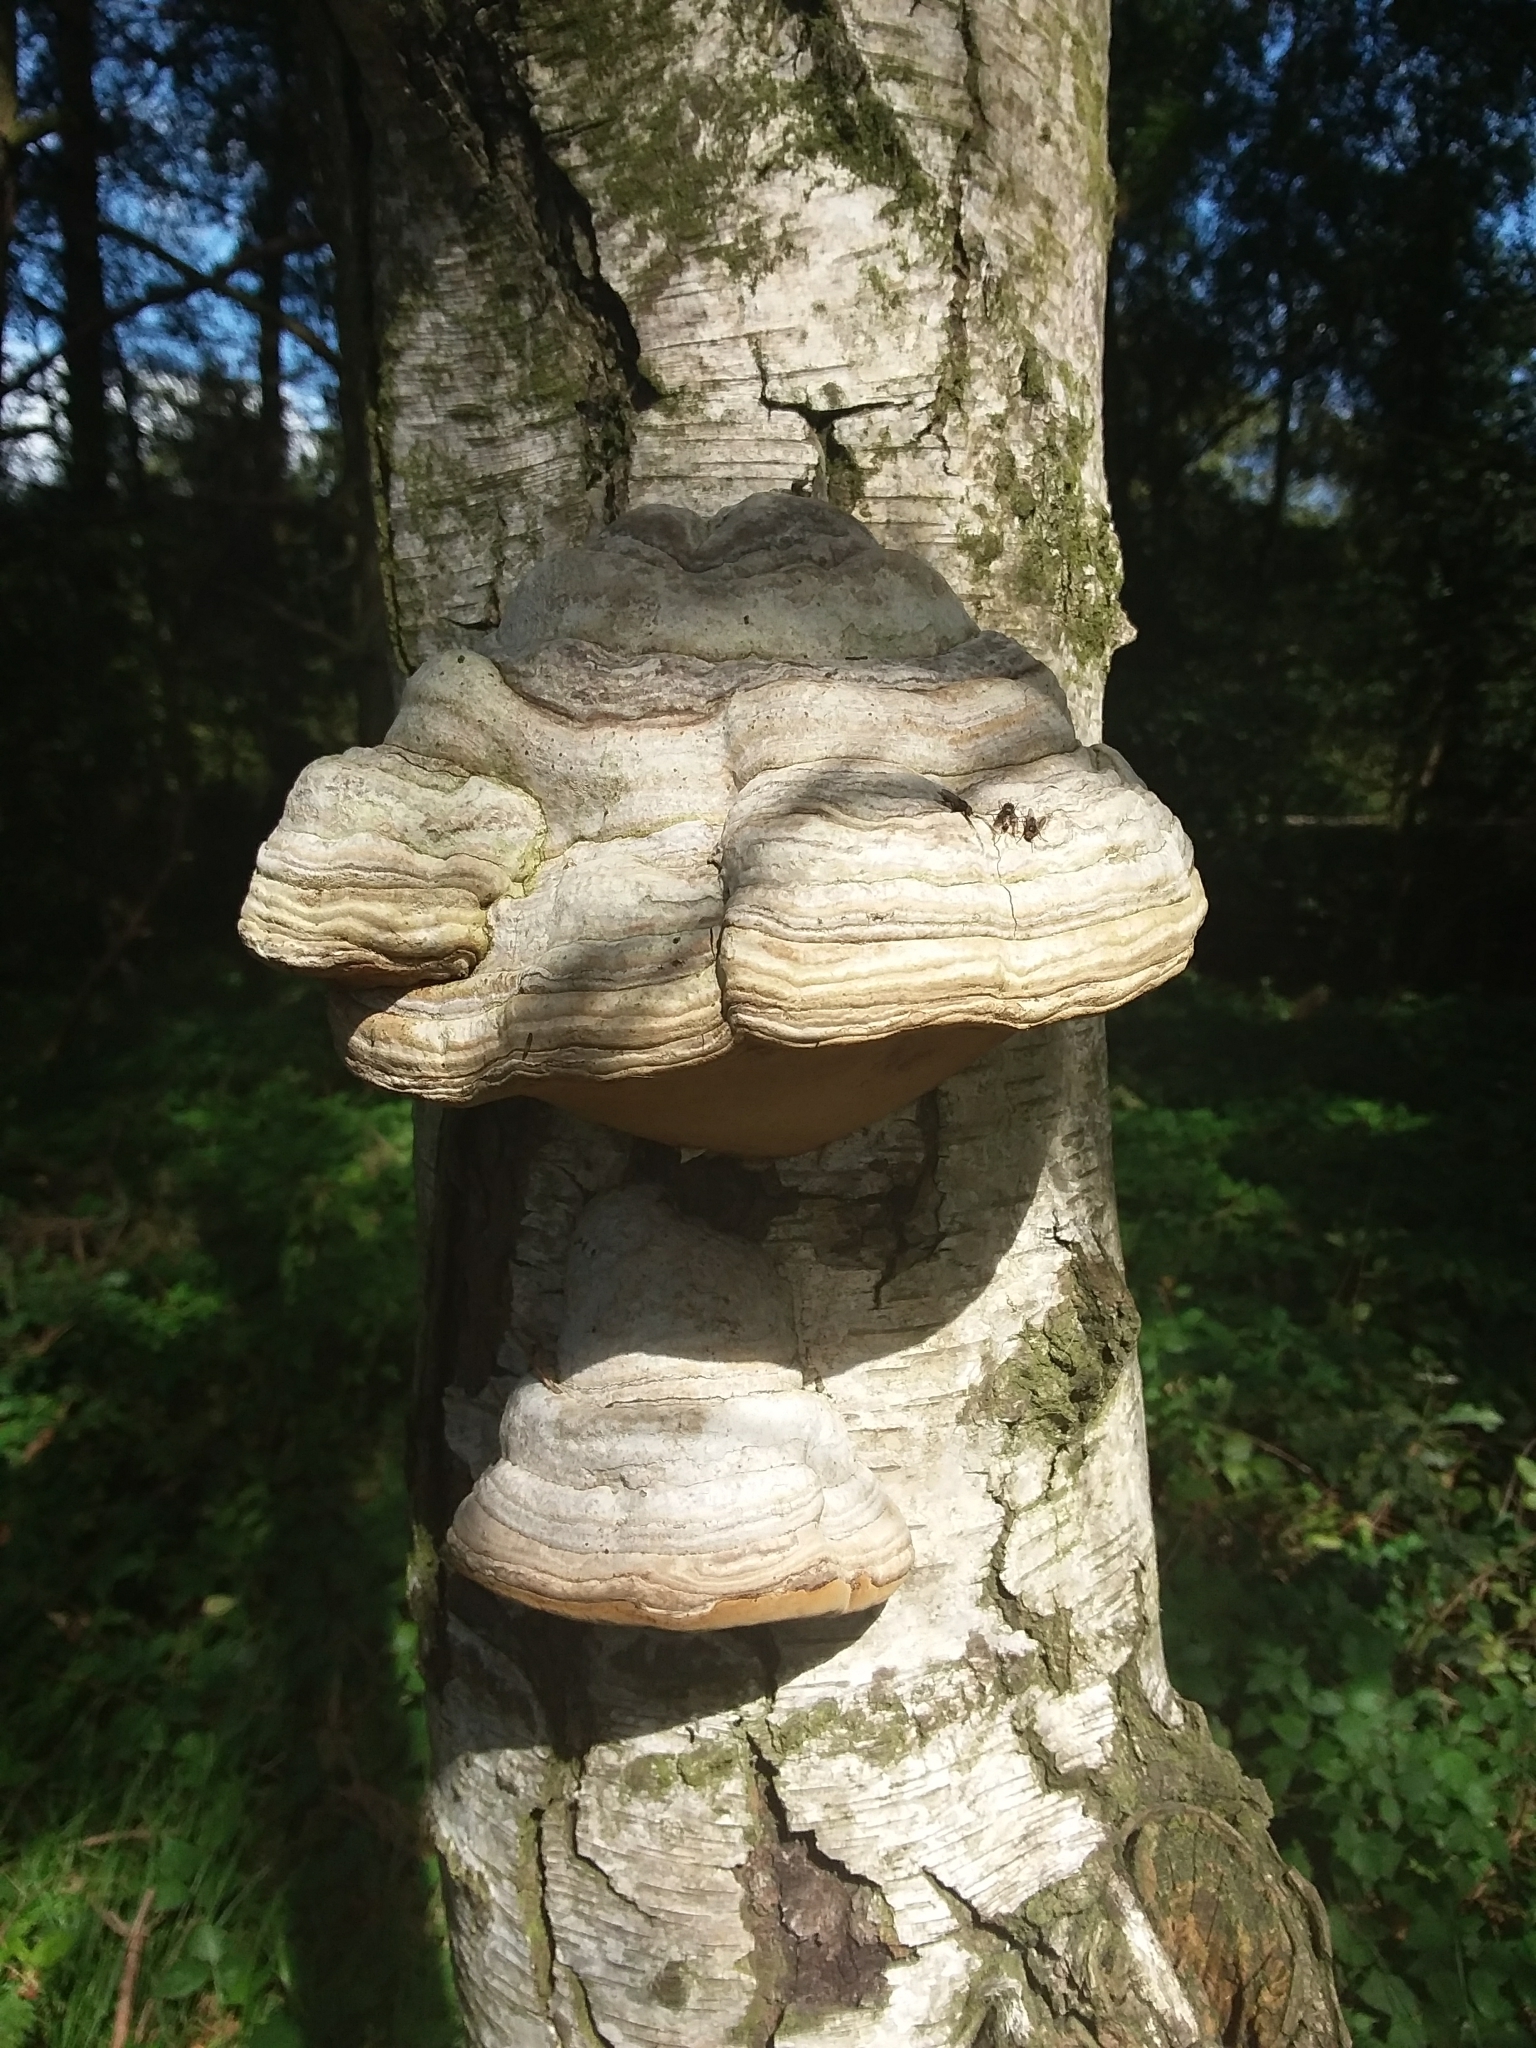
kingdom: Fungi
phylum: Basidiomycota
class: Agaricomycetes
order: Polyporales
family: Polyporaceae
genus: Fomes
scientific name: Fomes fomentarius
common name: Hoof fungus
